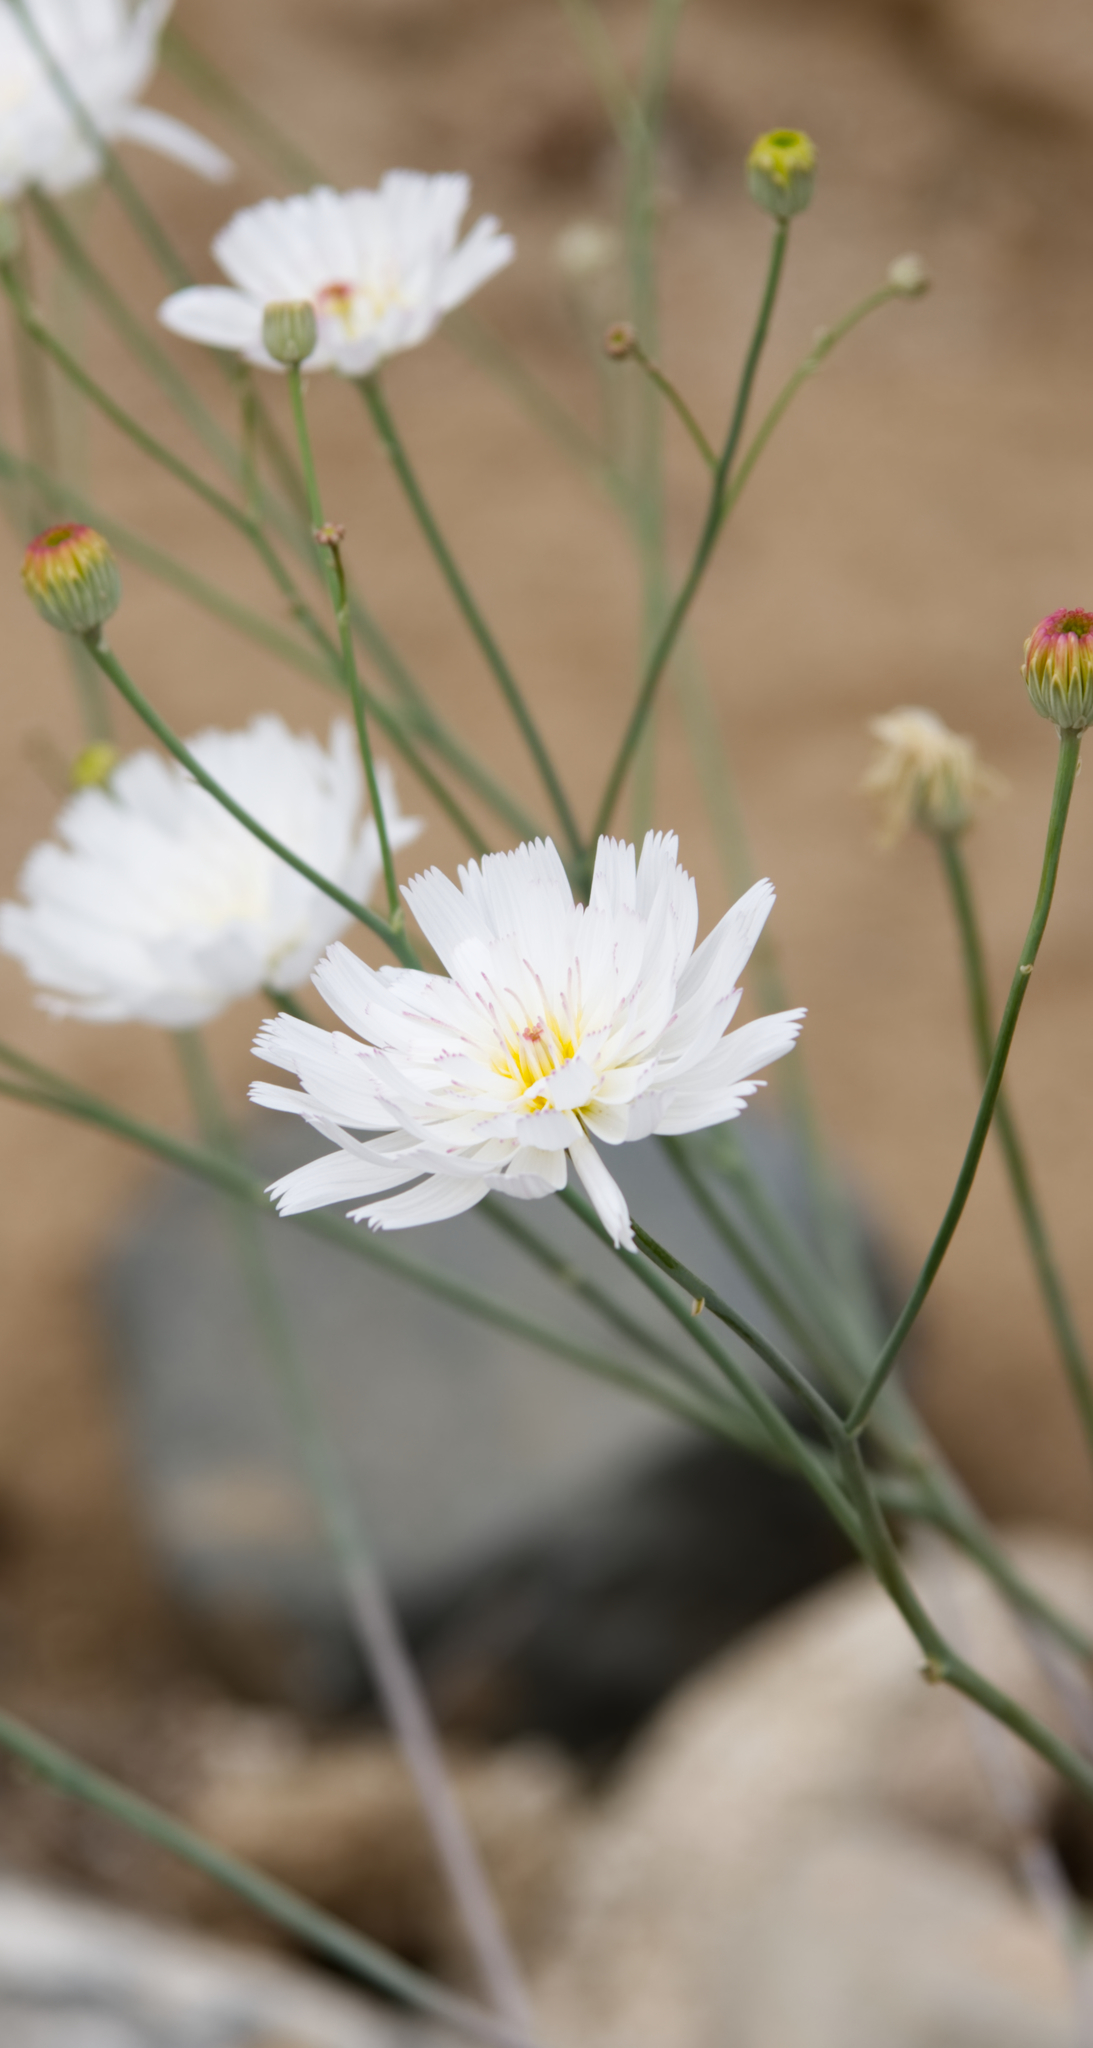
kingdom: Plantae
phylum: Tracheophyta
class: Magnoliopsida
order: Asterales
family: Asteraceae
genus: Atrichoseris
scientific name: Atrichoseris platyphylla
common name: Tobaccoweed
